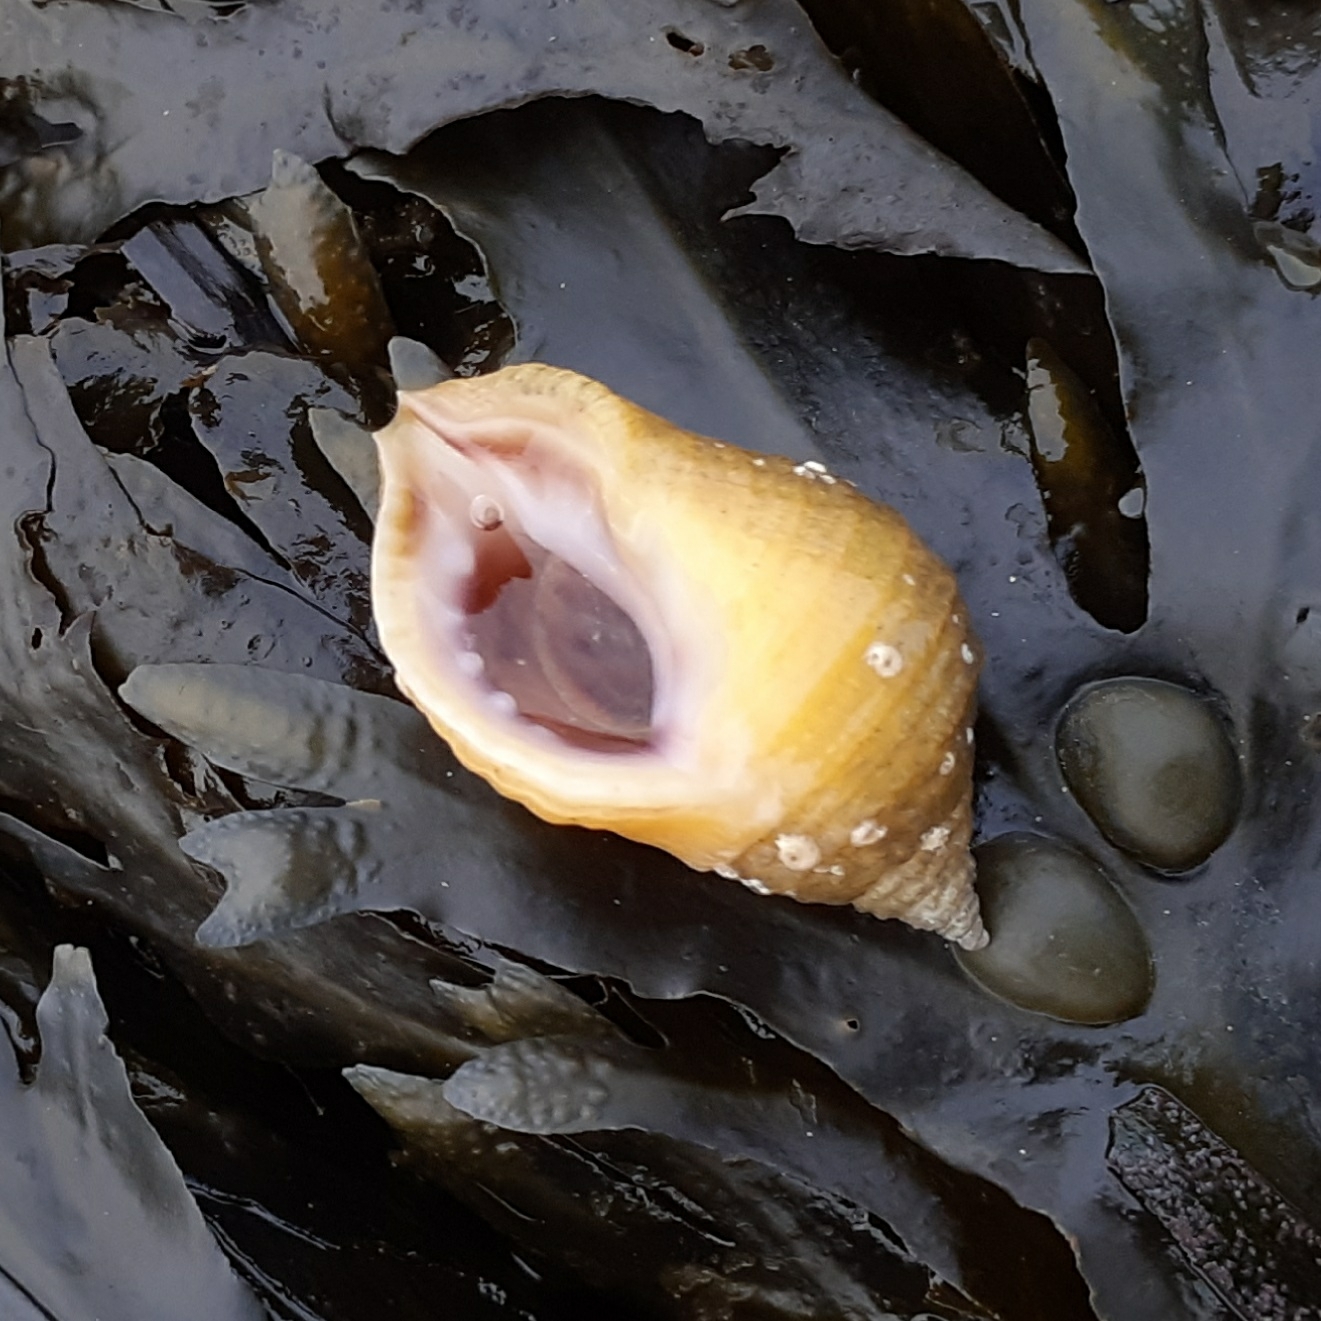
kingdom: Animalia
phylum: Mollusca
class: Gastropoda
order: Neogastropoda
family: Muricidae
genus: Nucella
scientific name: Nucella lapillus
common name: Dog whelk
